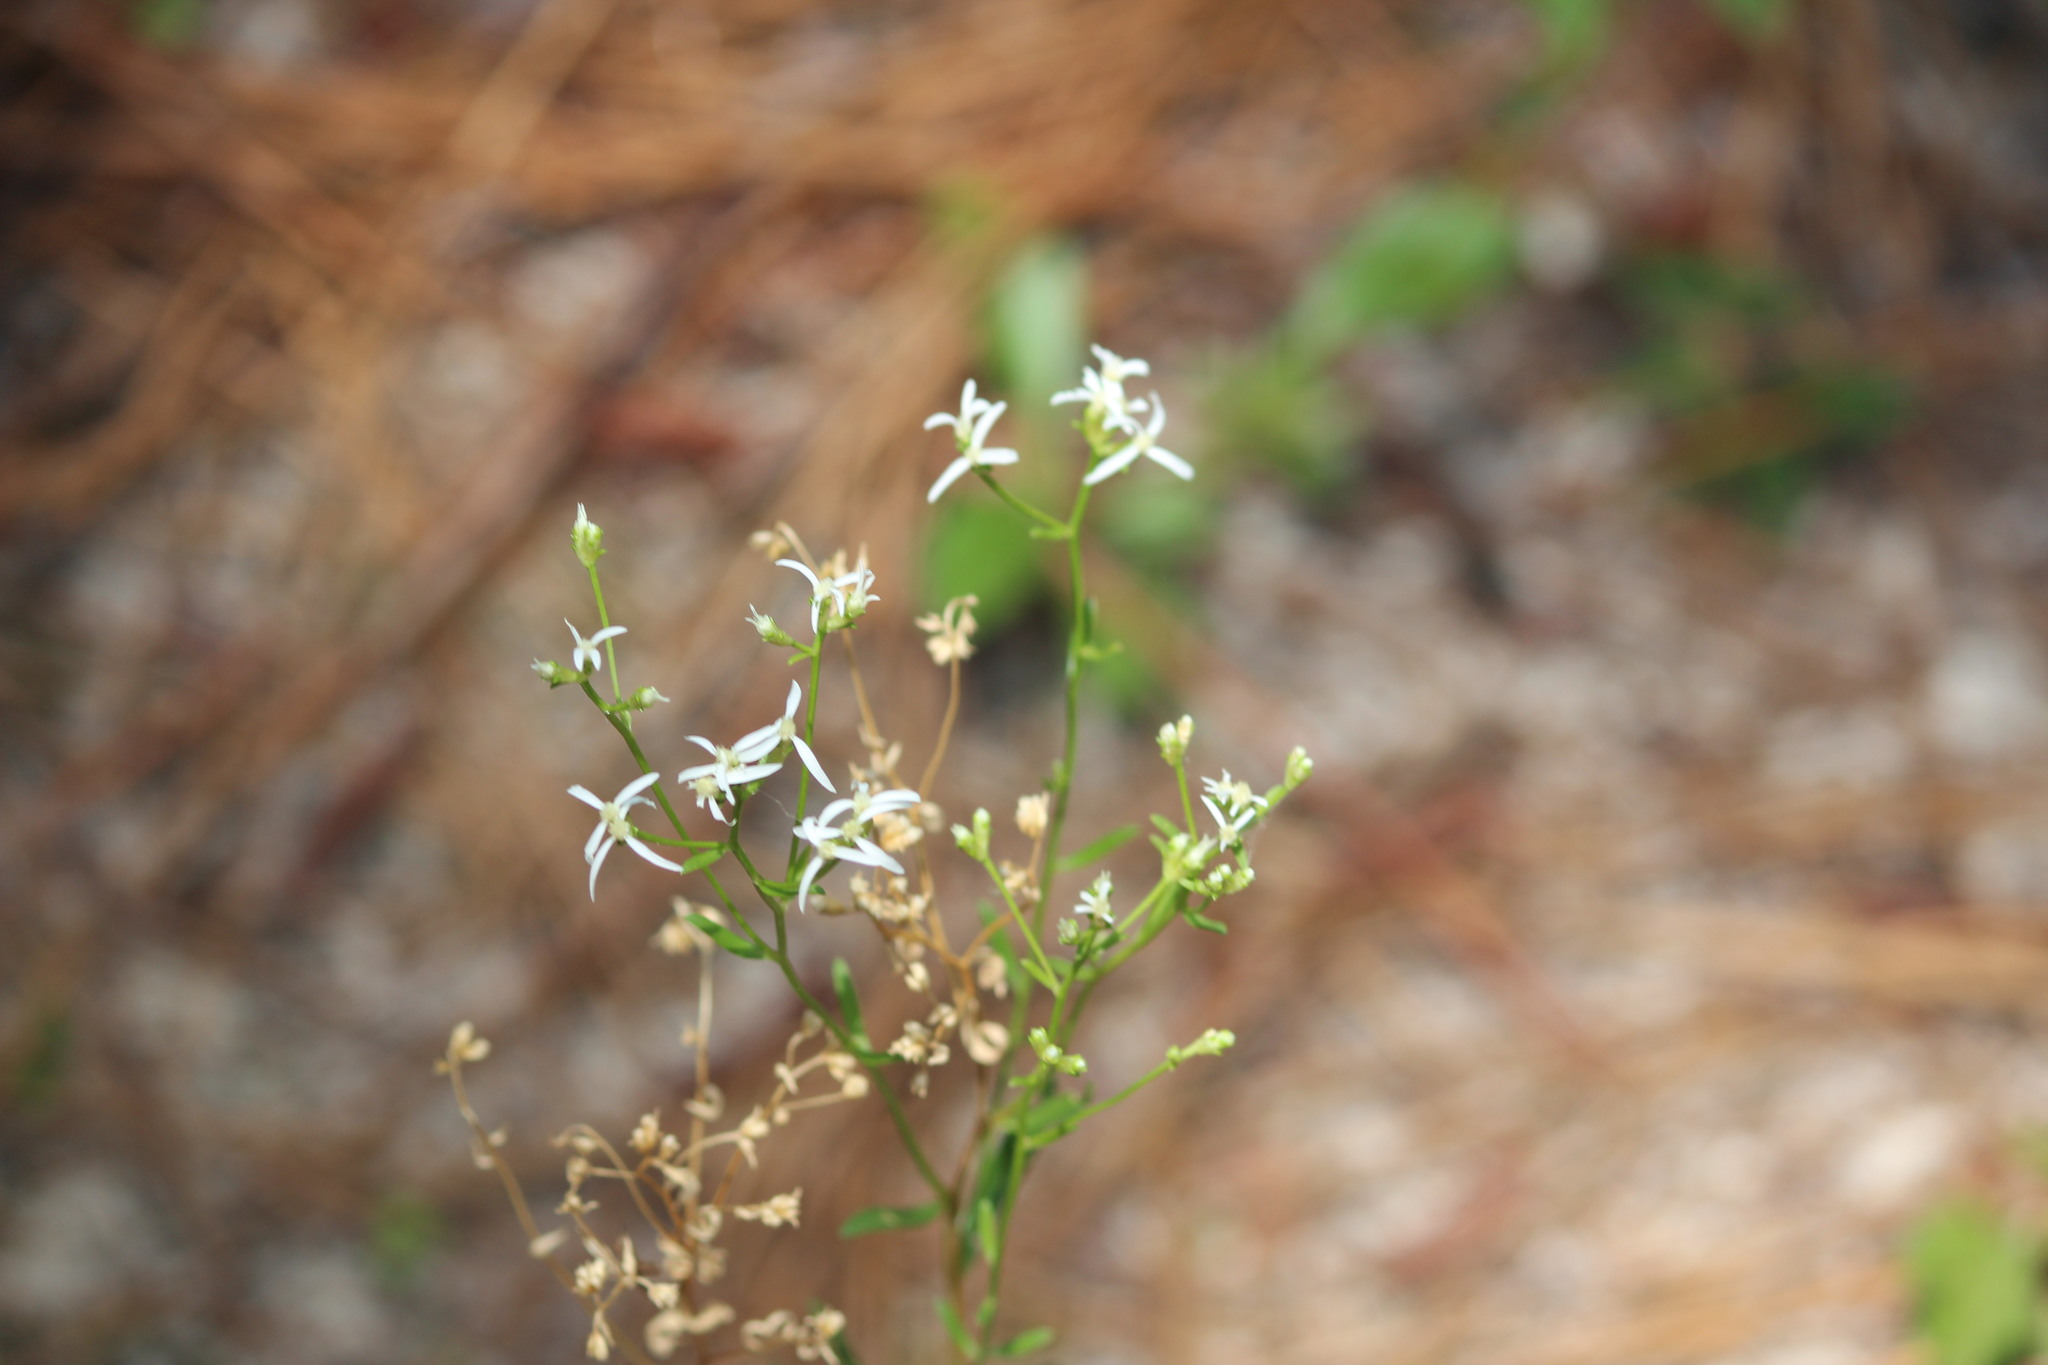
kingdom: Plantae
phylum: Tracheophyta
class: Magnoliopsida
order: Asterales
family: Asteraceae
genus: Sericocarpus
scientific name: Sericocarpus linifolius
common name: Narrow-leaf aster
